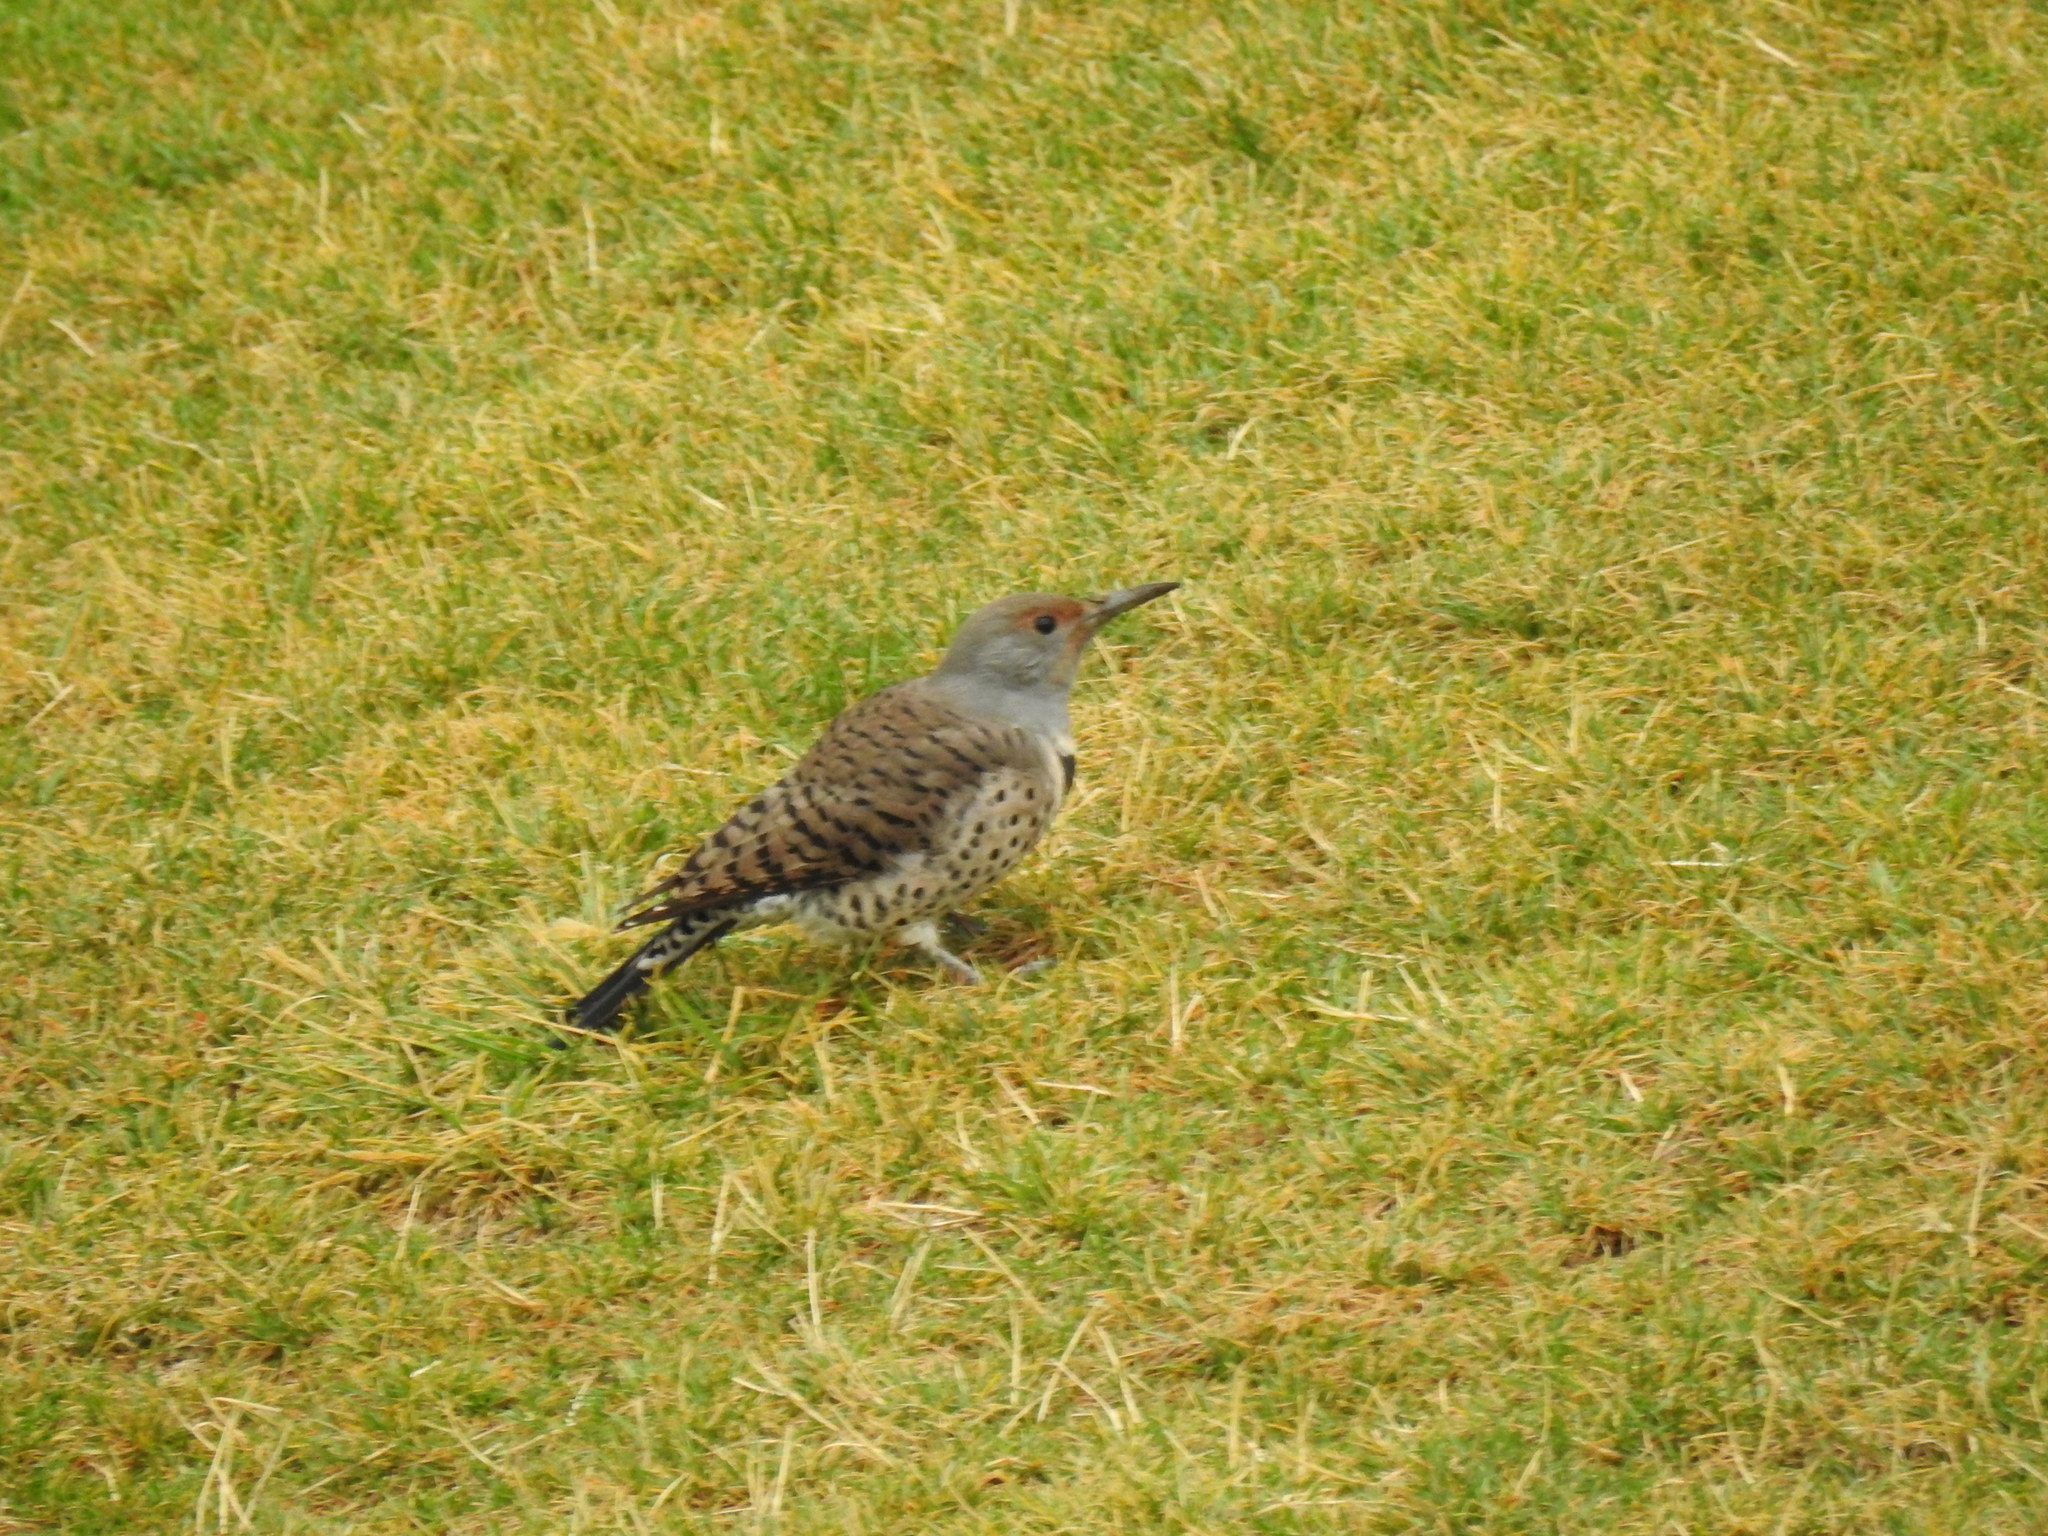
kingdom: Animalia
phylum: Chordata
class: Aves
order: Piciformes
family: Picidae
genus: Colaptes
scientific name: Colaptes auratus
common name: Northern flicker
